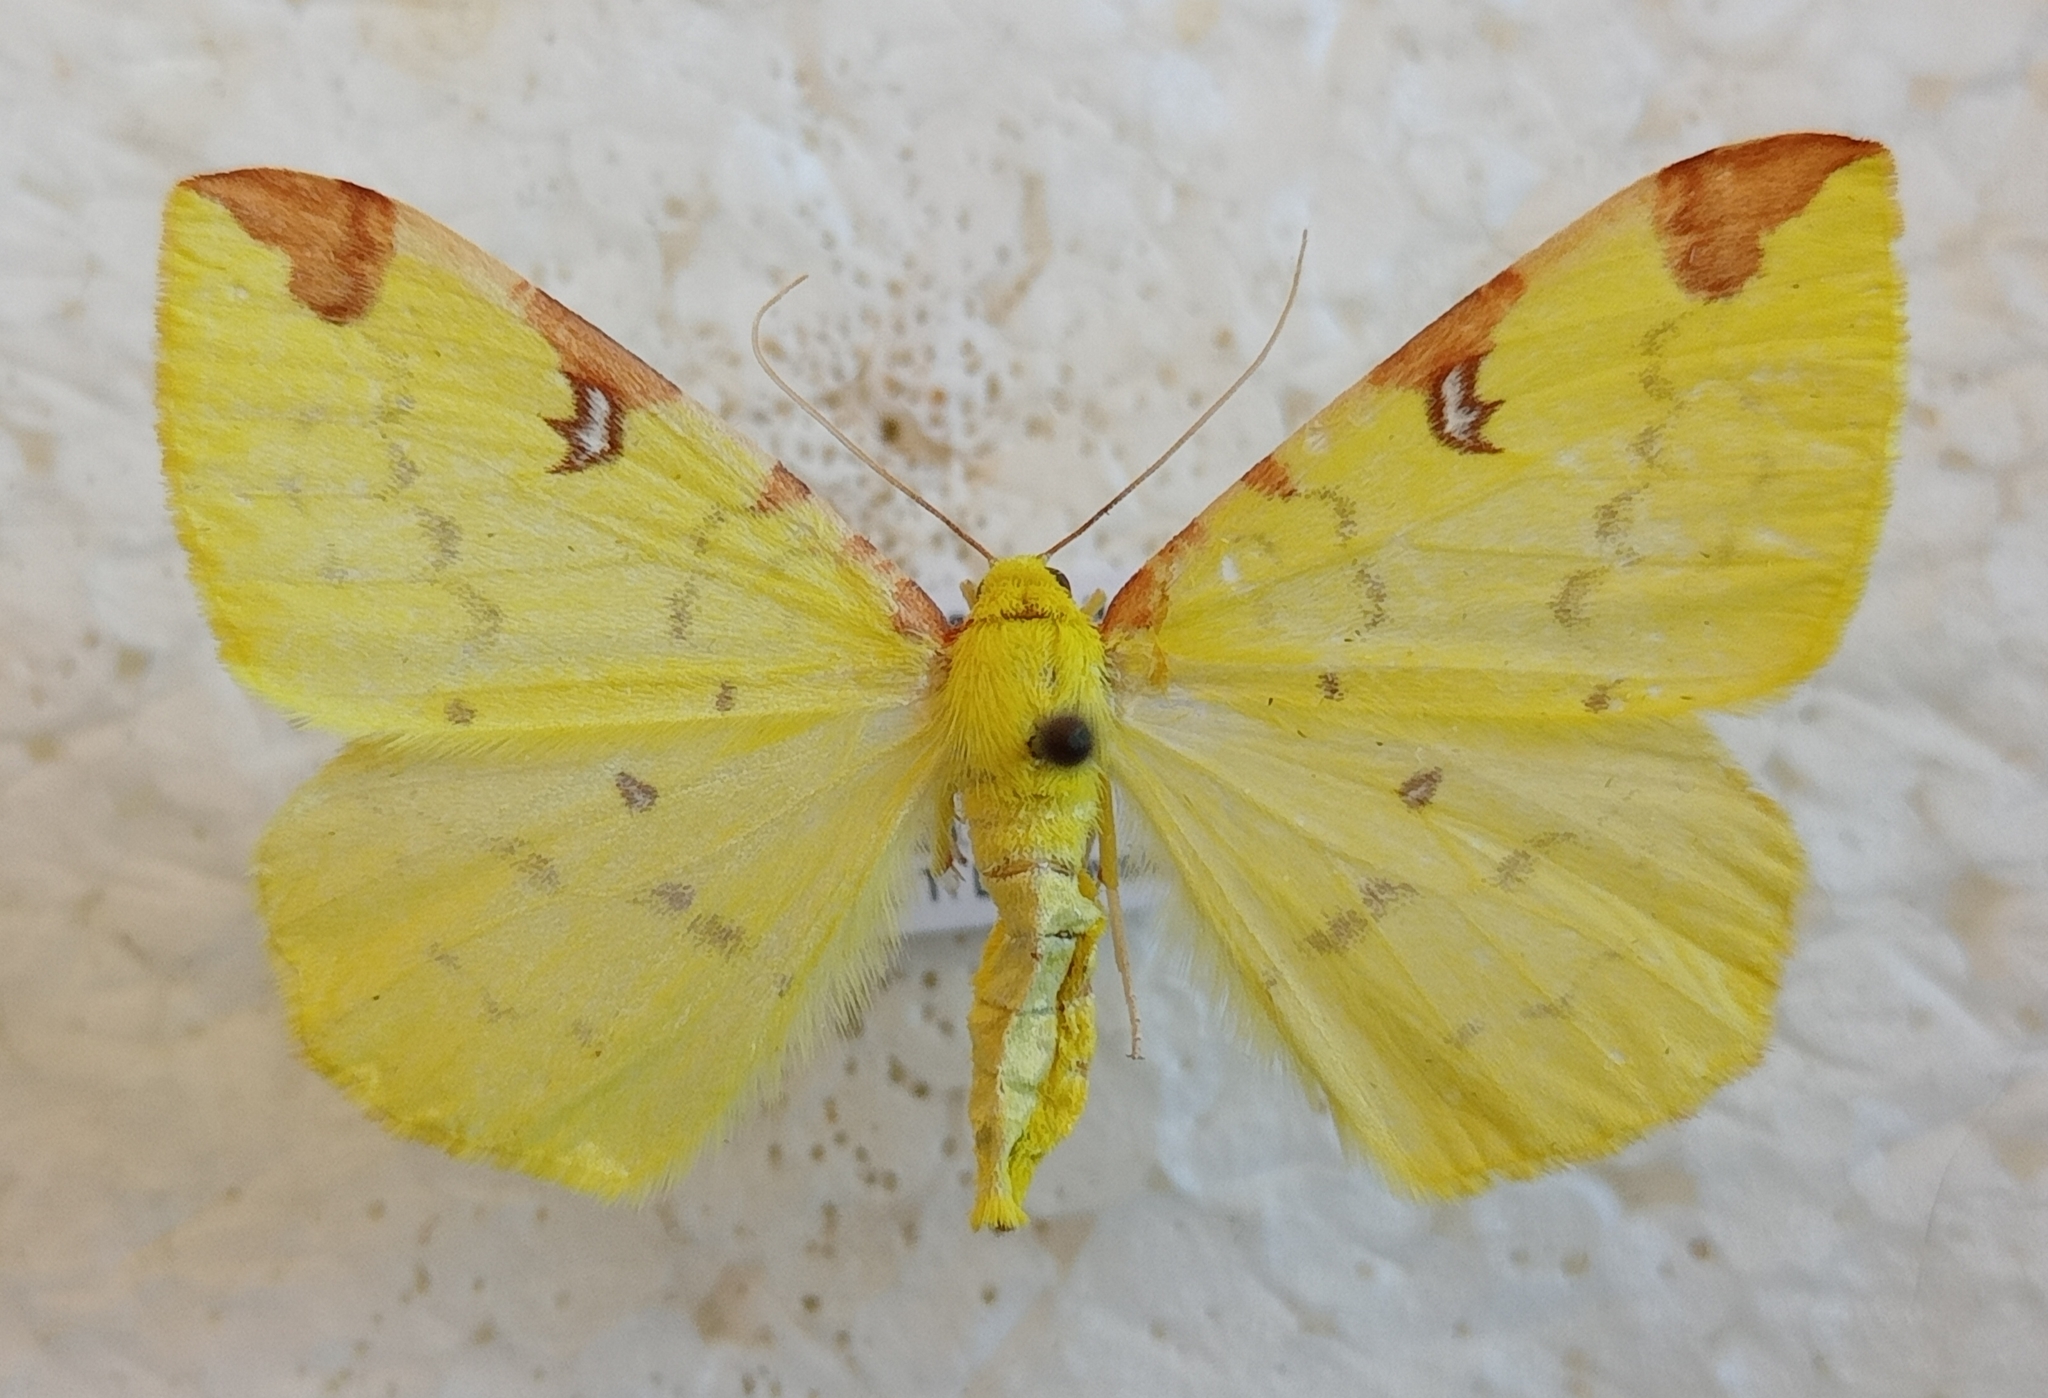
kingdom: Animalia
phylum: Arthropoda
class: Insecta
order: Lepidoptera
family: Geometridae
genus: Opisthograptis
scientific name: Opisthograptis luteolata
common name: Brimstone moth
